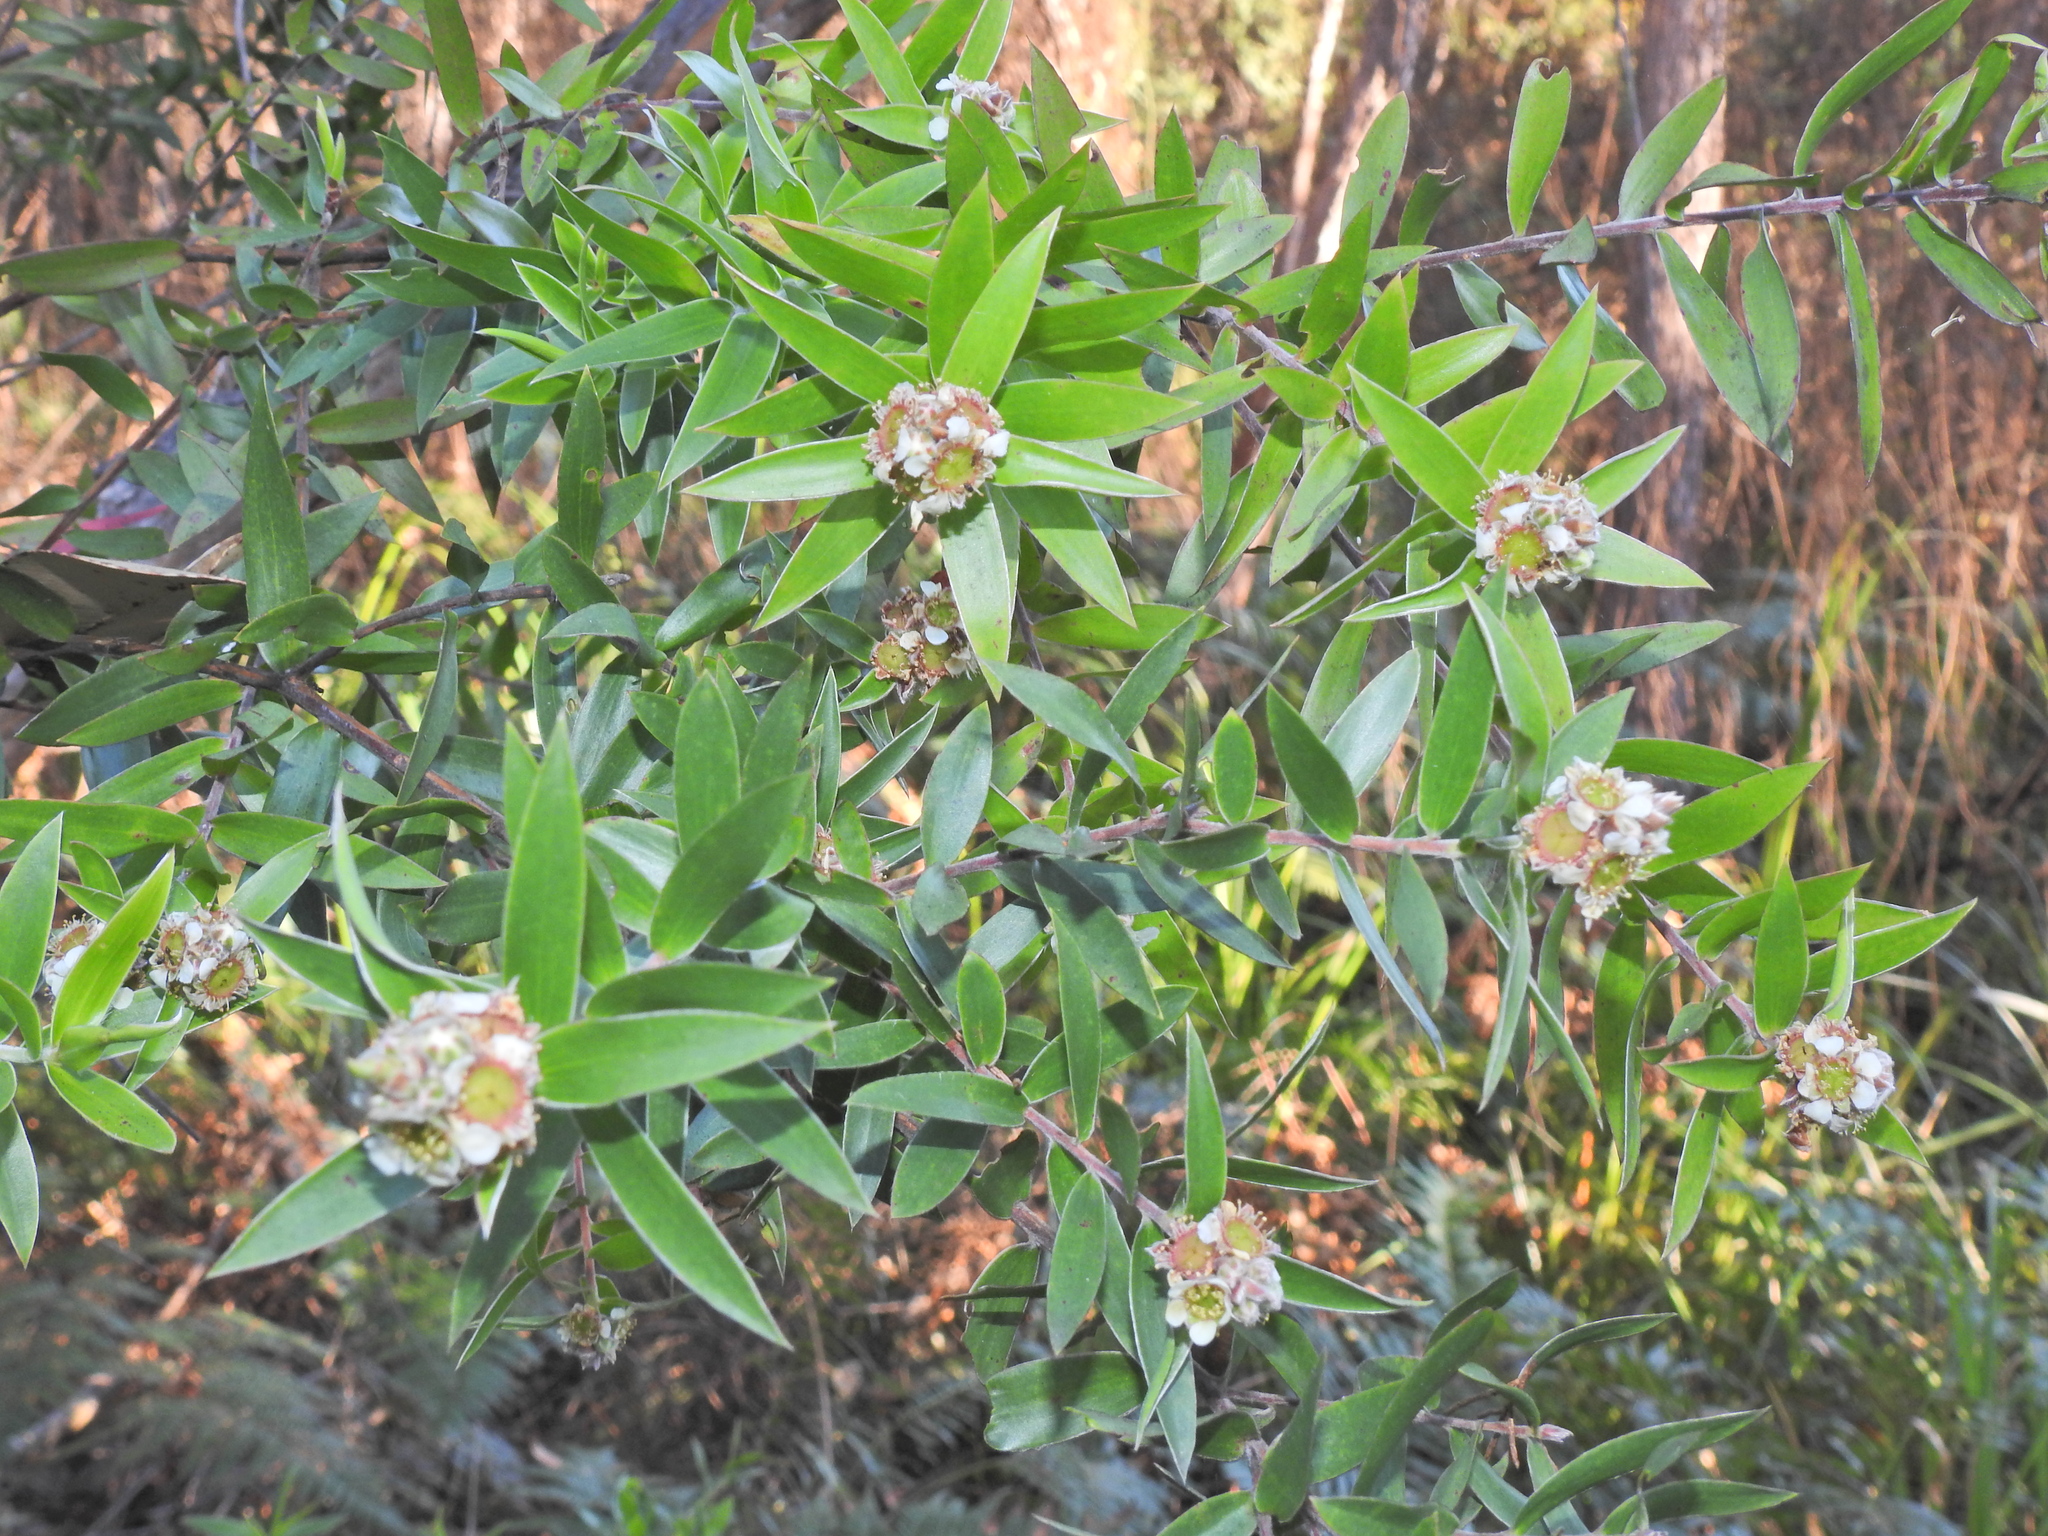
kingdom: Plantae
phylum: Tracheophyta
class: Magnoliopsida
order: Myrtales
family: Myrtaceae
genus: Leptospermum
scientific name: Leptospermum speciosum
